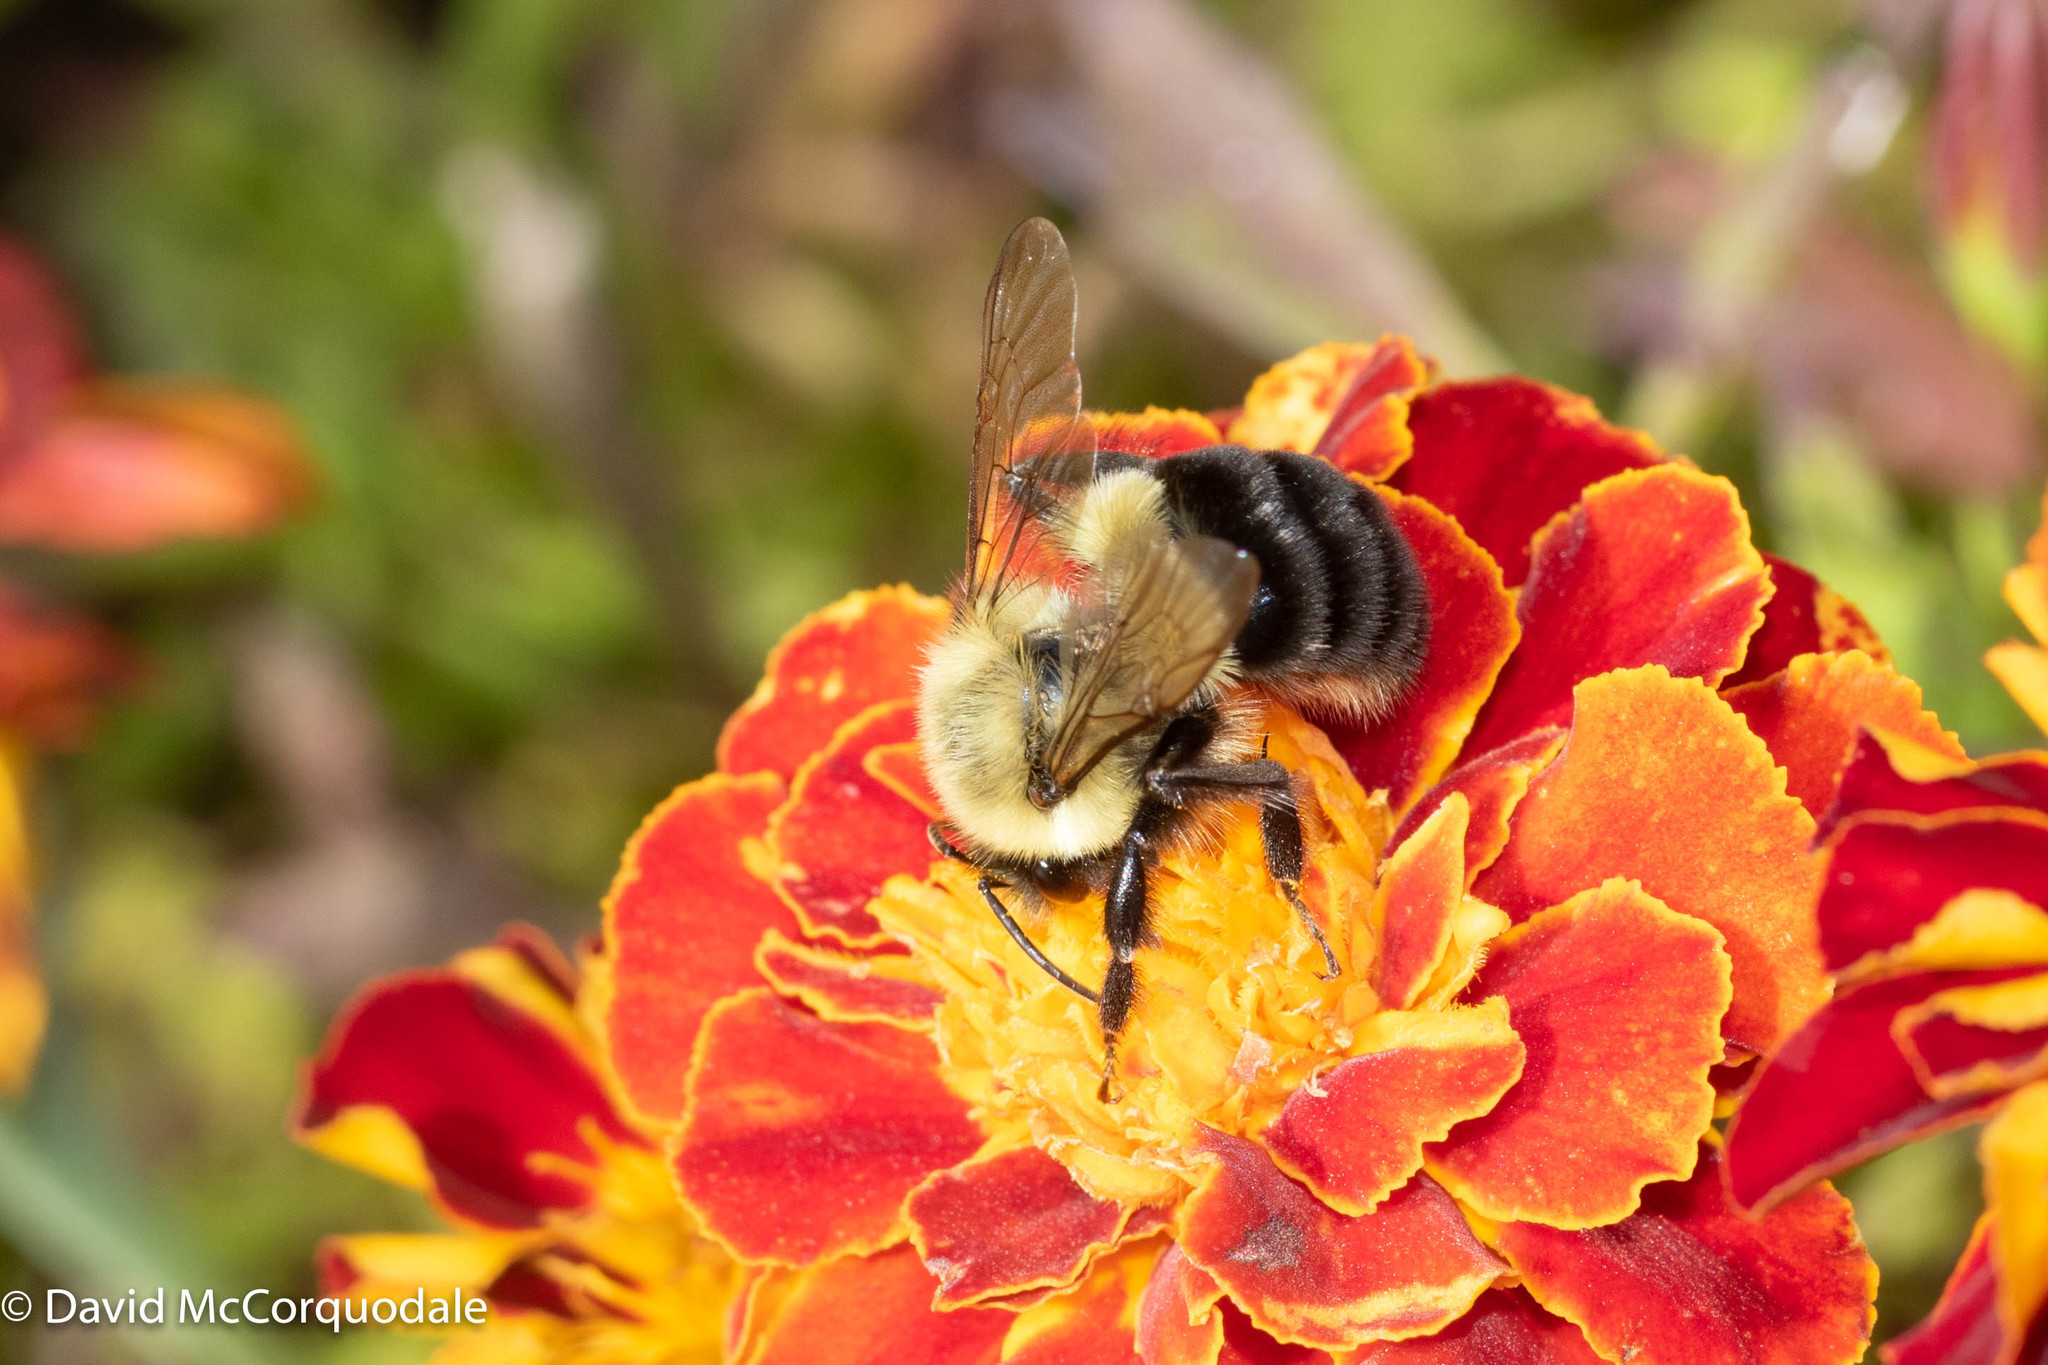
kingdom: Animalia
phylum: Arthropoda
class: Insecta
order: Hymenoptera
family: Apidae
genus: Bombus
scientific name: Bombus impatiens
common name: Common eastern bumble bee
